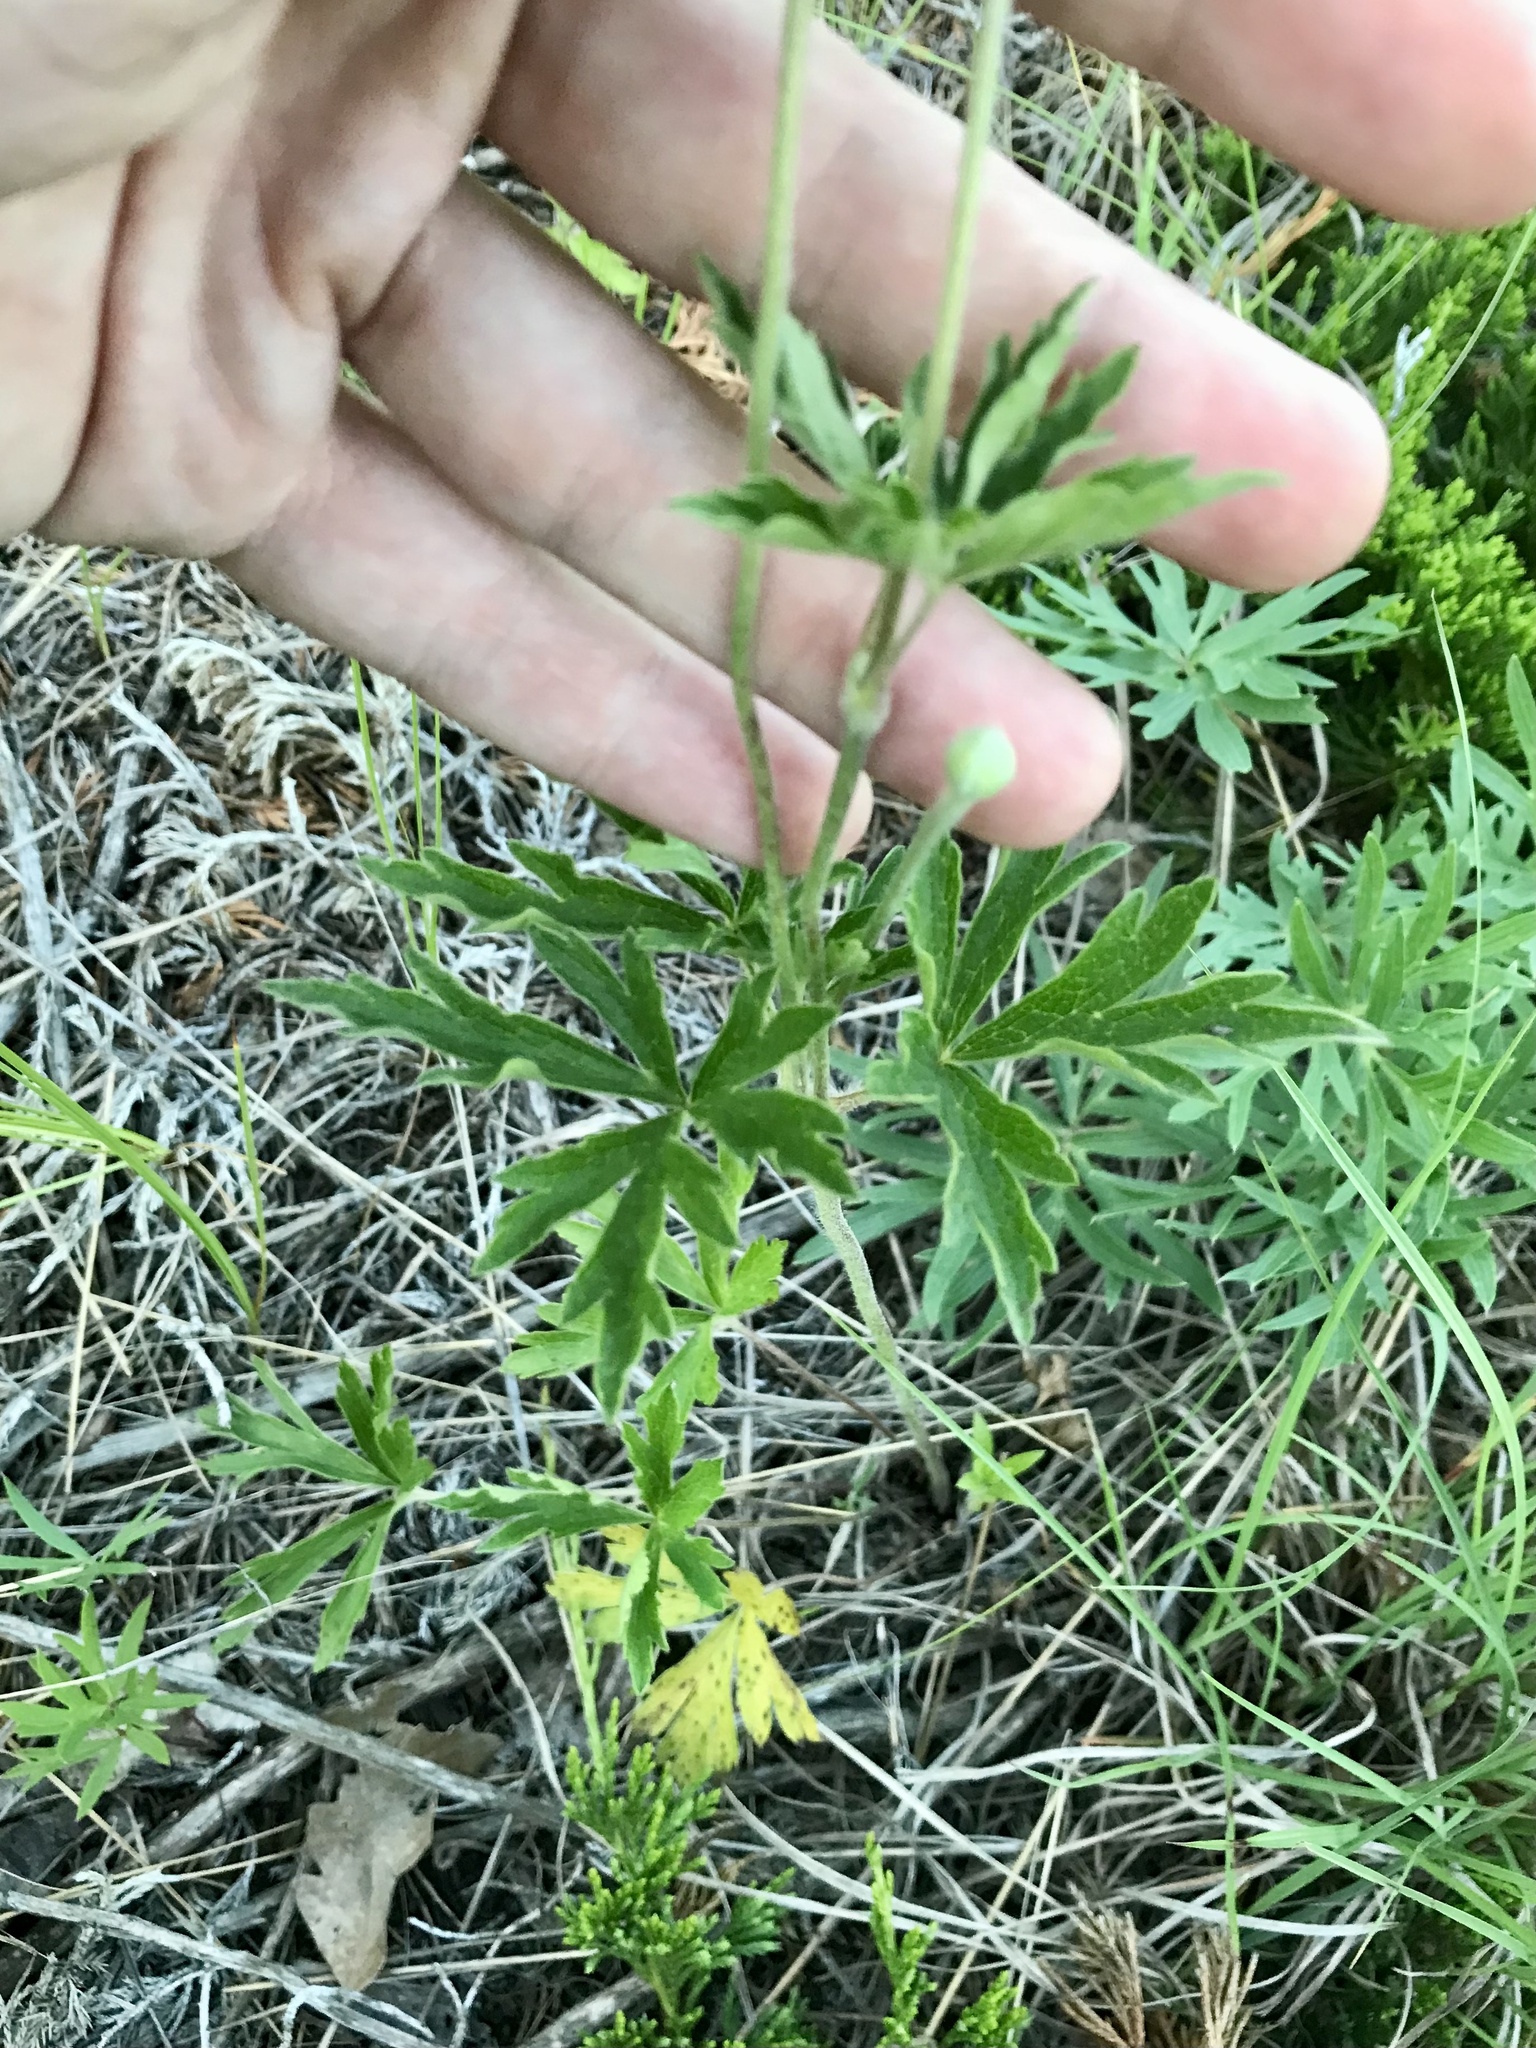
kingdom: Plantae
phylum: Tracheophyta
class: Magnoliopsida
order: Ranunculales
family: Ranunculaceae
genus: Anemone
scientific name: Anemone cylindrica
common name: Candle anemone
